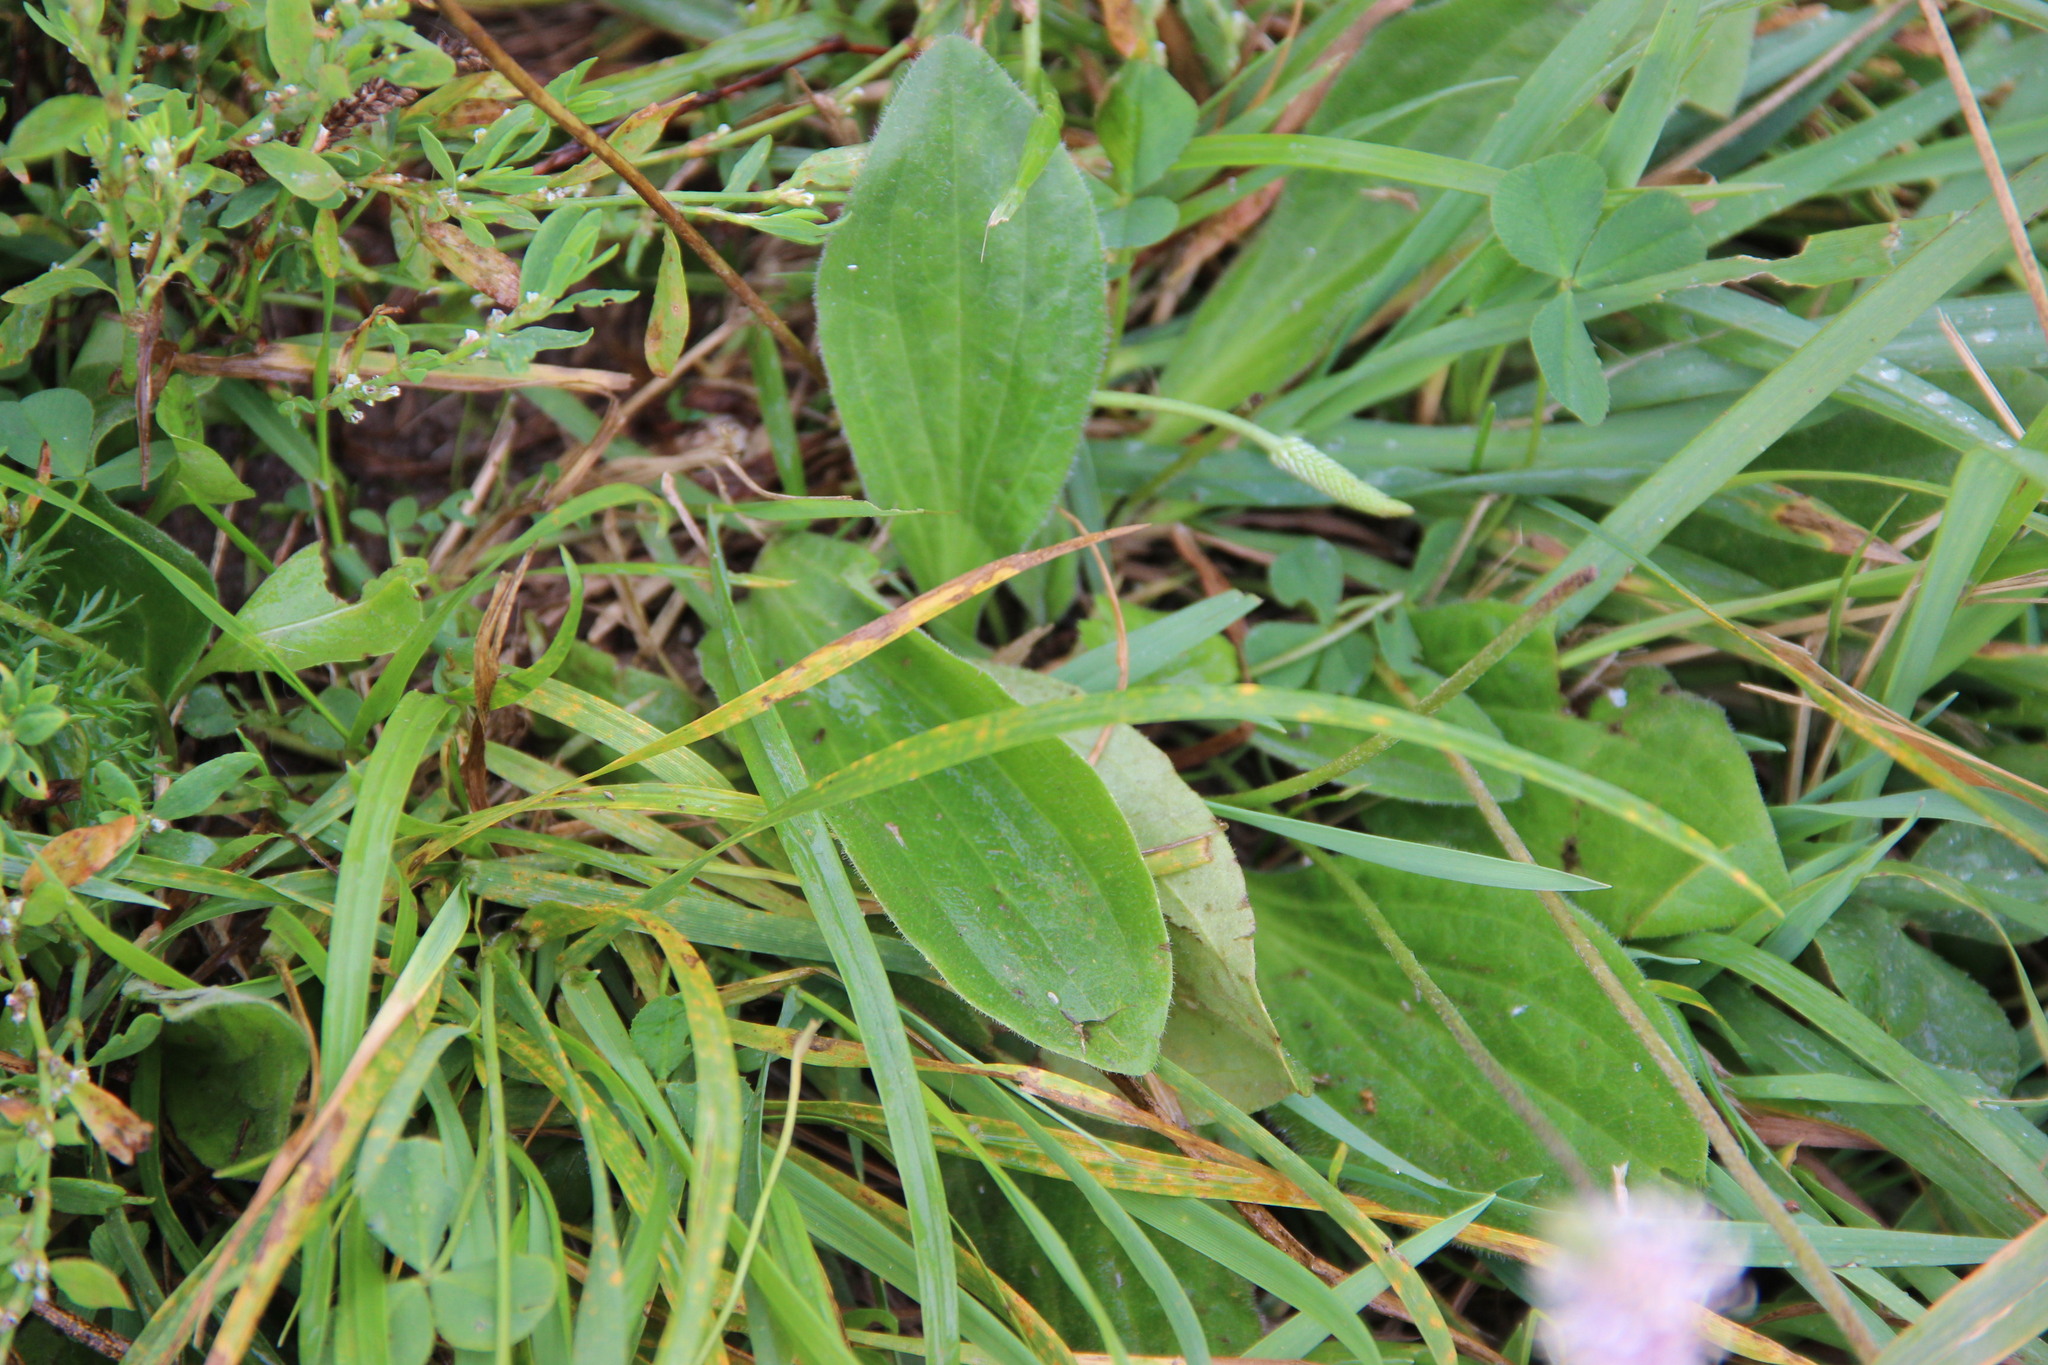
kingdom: Plantae
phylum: Tracheophyta
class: Magnoliopsida
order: Lamiales
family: Plantaginaceae
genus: Plantago
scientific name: Plantago media
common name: Hoary plantain
